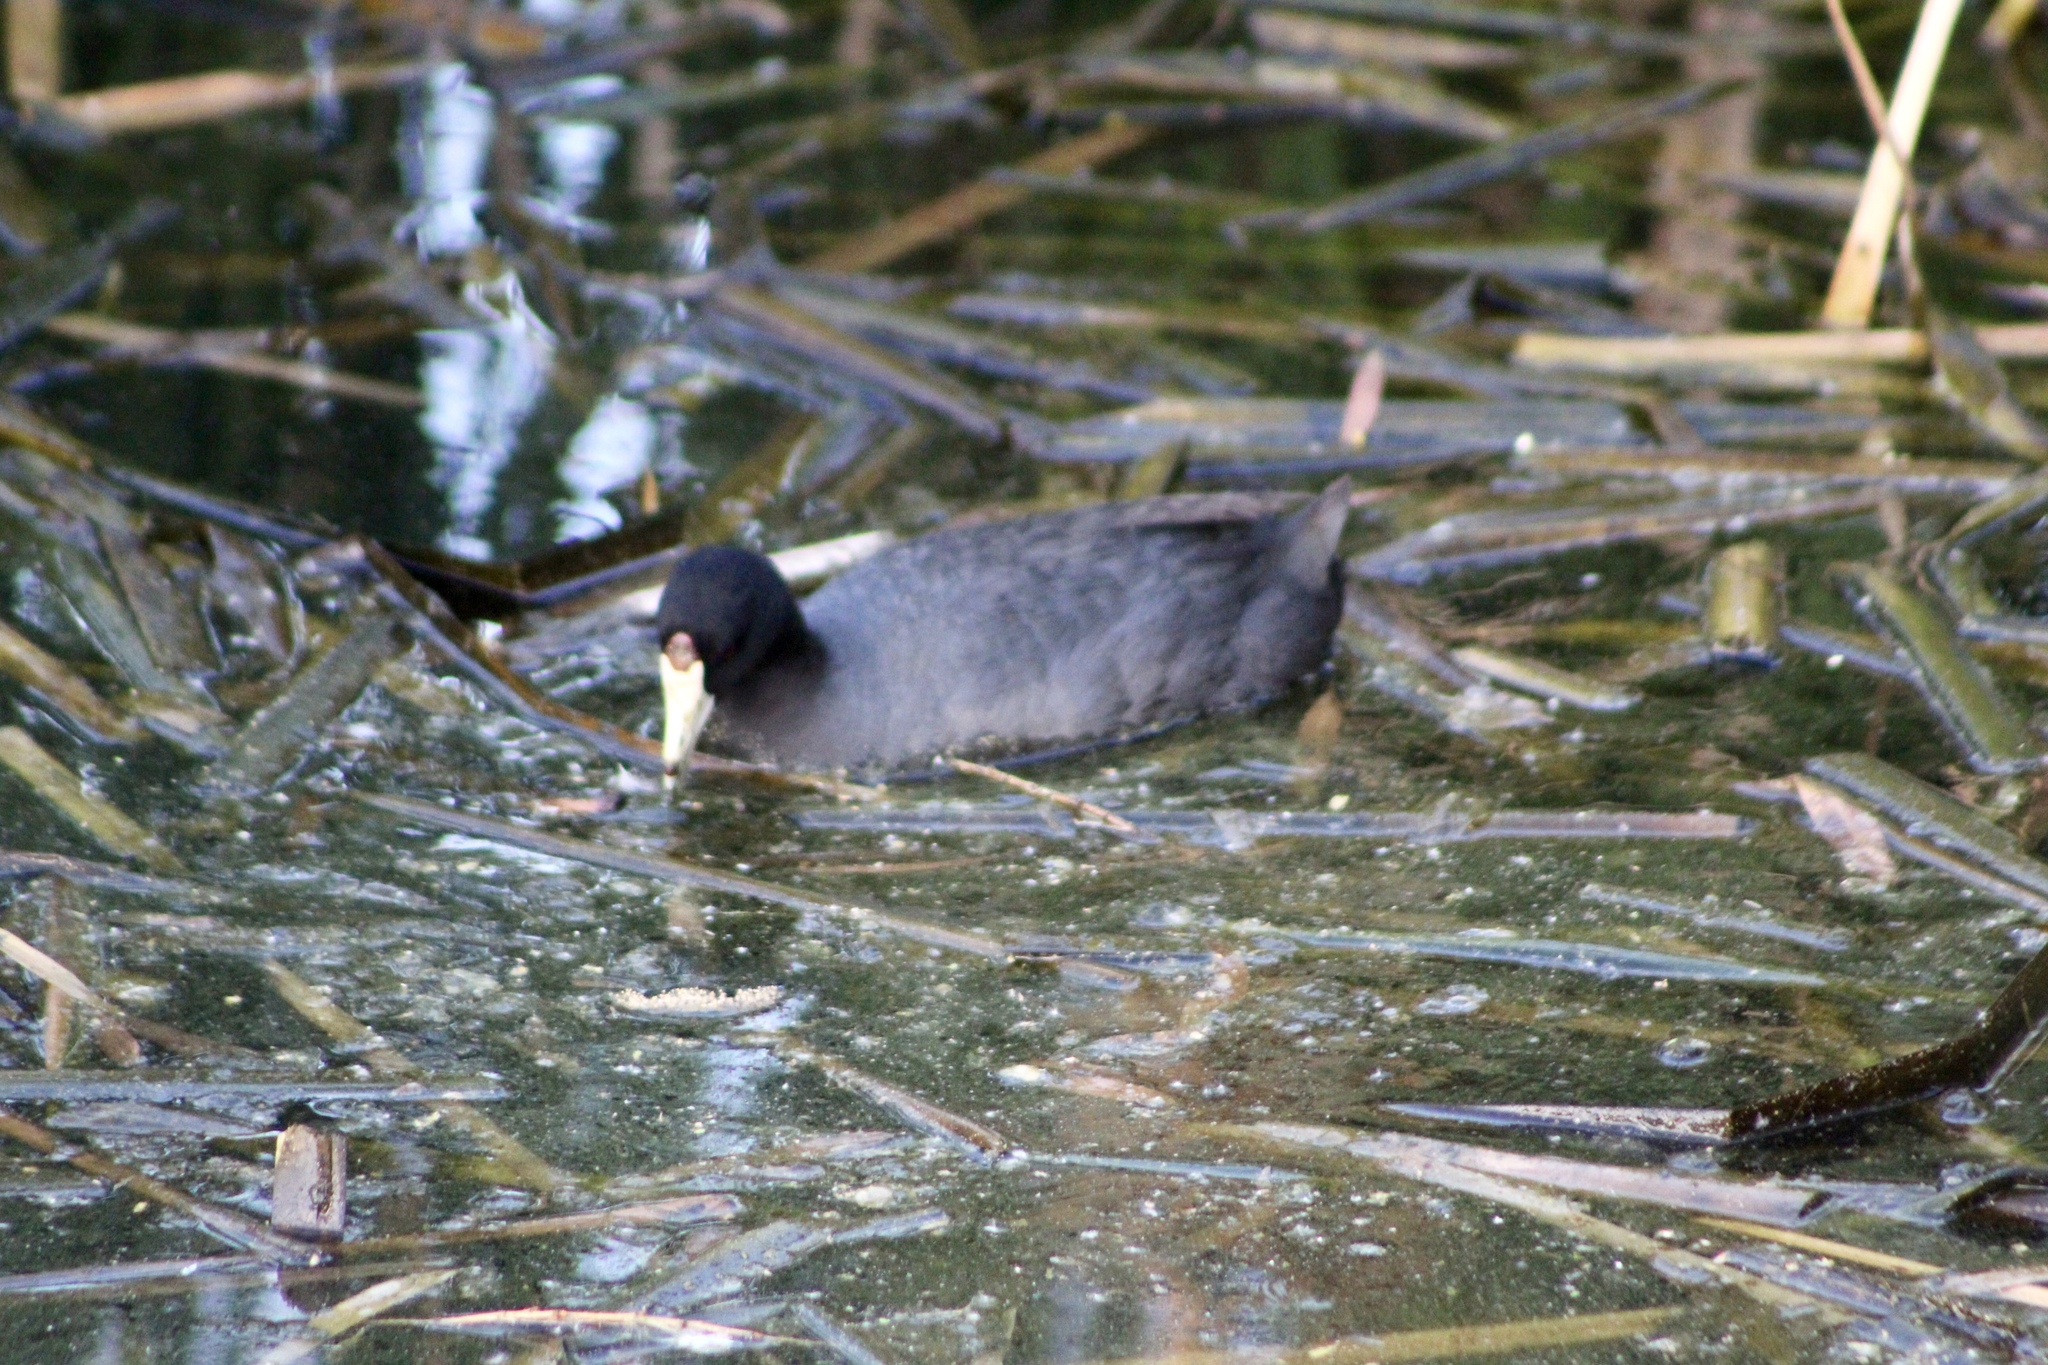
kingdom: Animalia
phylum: Chordata
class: Aves
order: Gruiformes
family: Rallidae
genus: Fulica
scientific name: Fulica americana
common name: American coot
